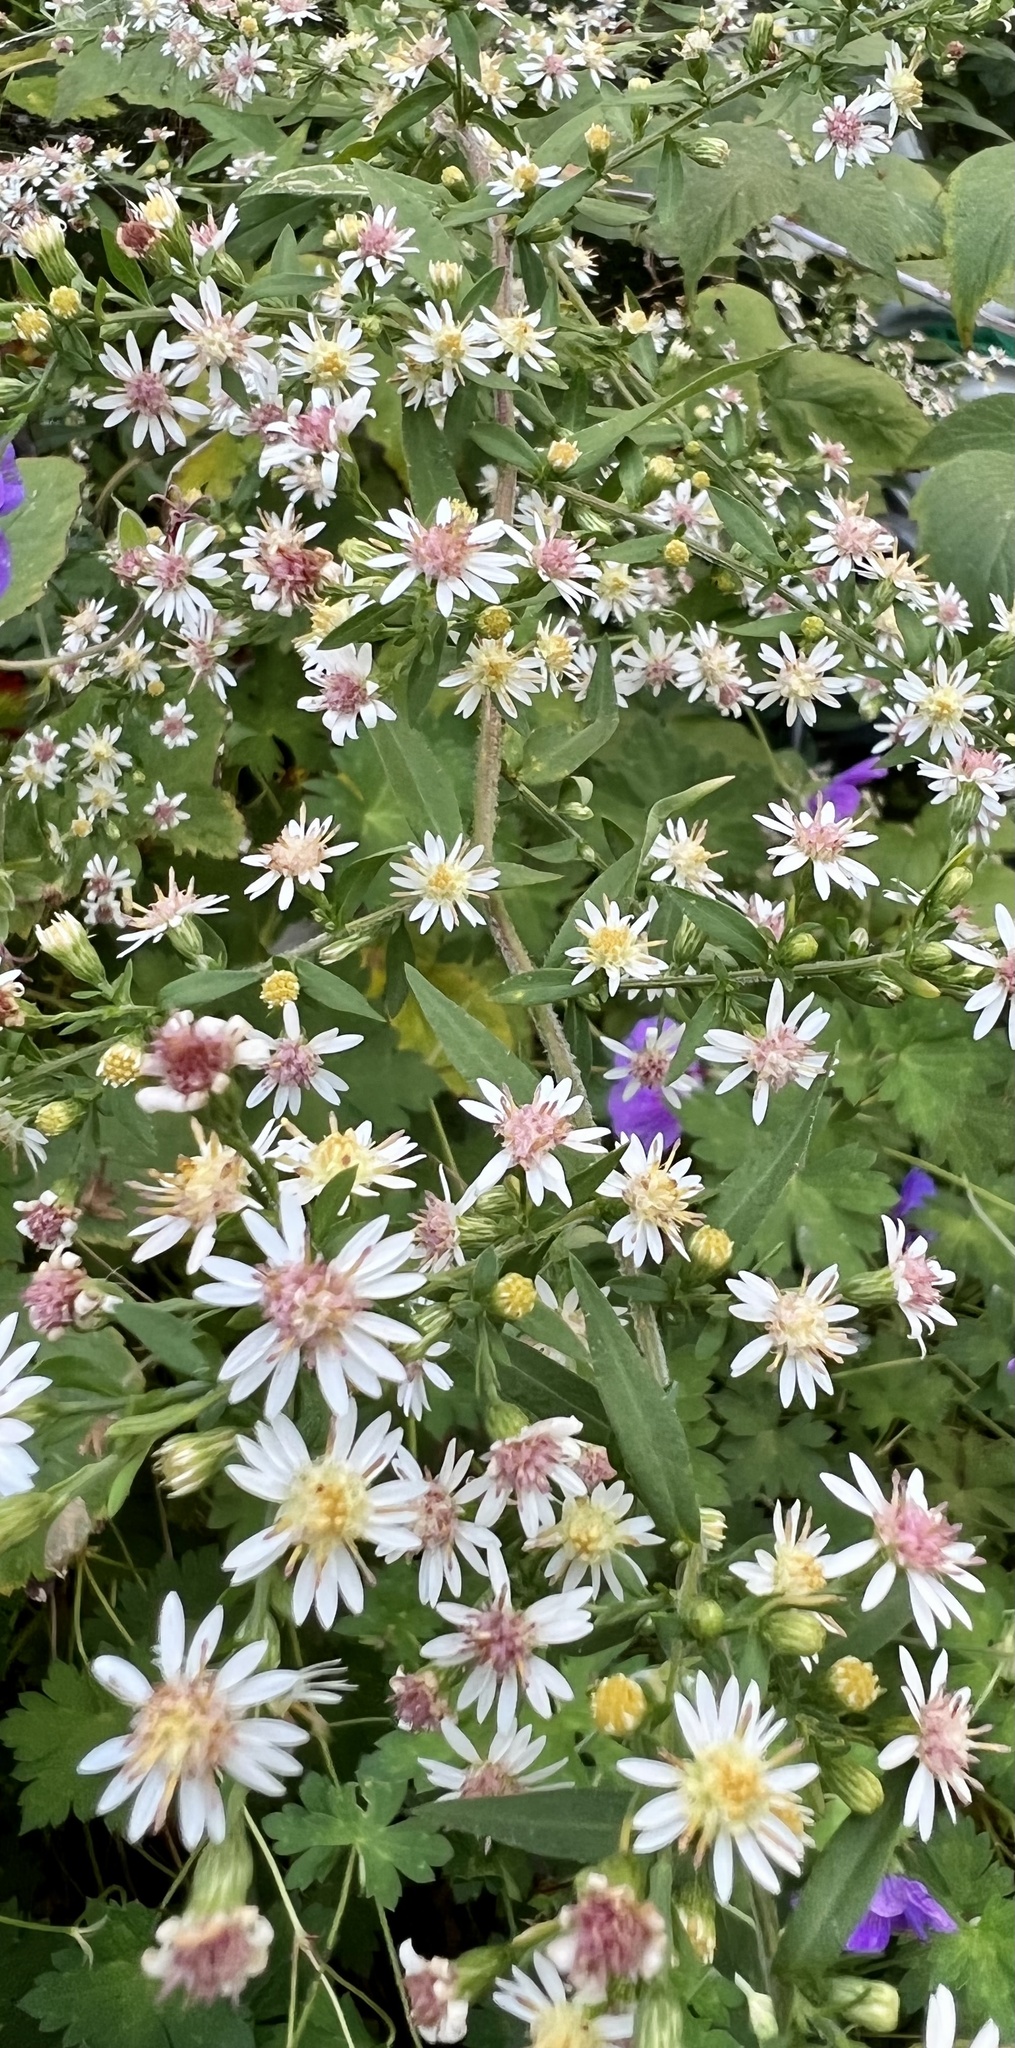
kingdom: Plantae
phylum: Tracheophyta
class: Magnoliopsida
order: Asterales
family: Asteraceae
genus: Symphyotrichum
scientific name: Symphyotrichum lateriflorum
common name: Calico aster
